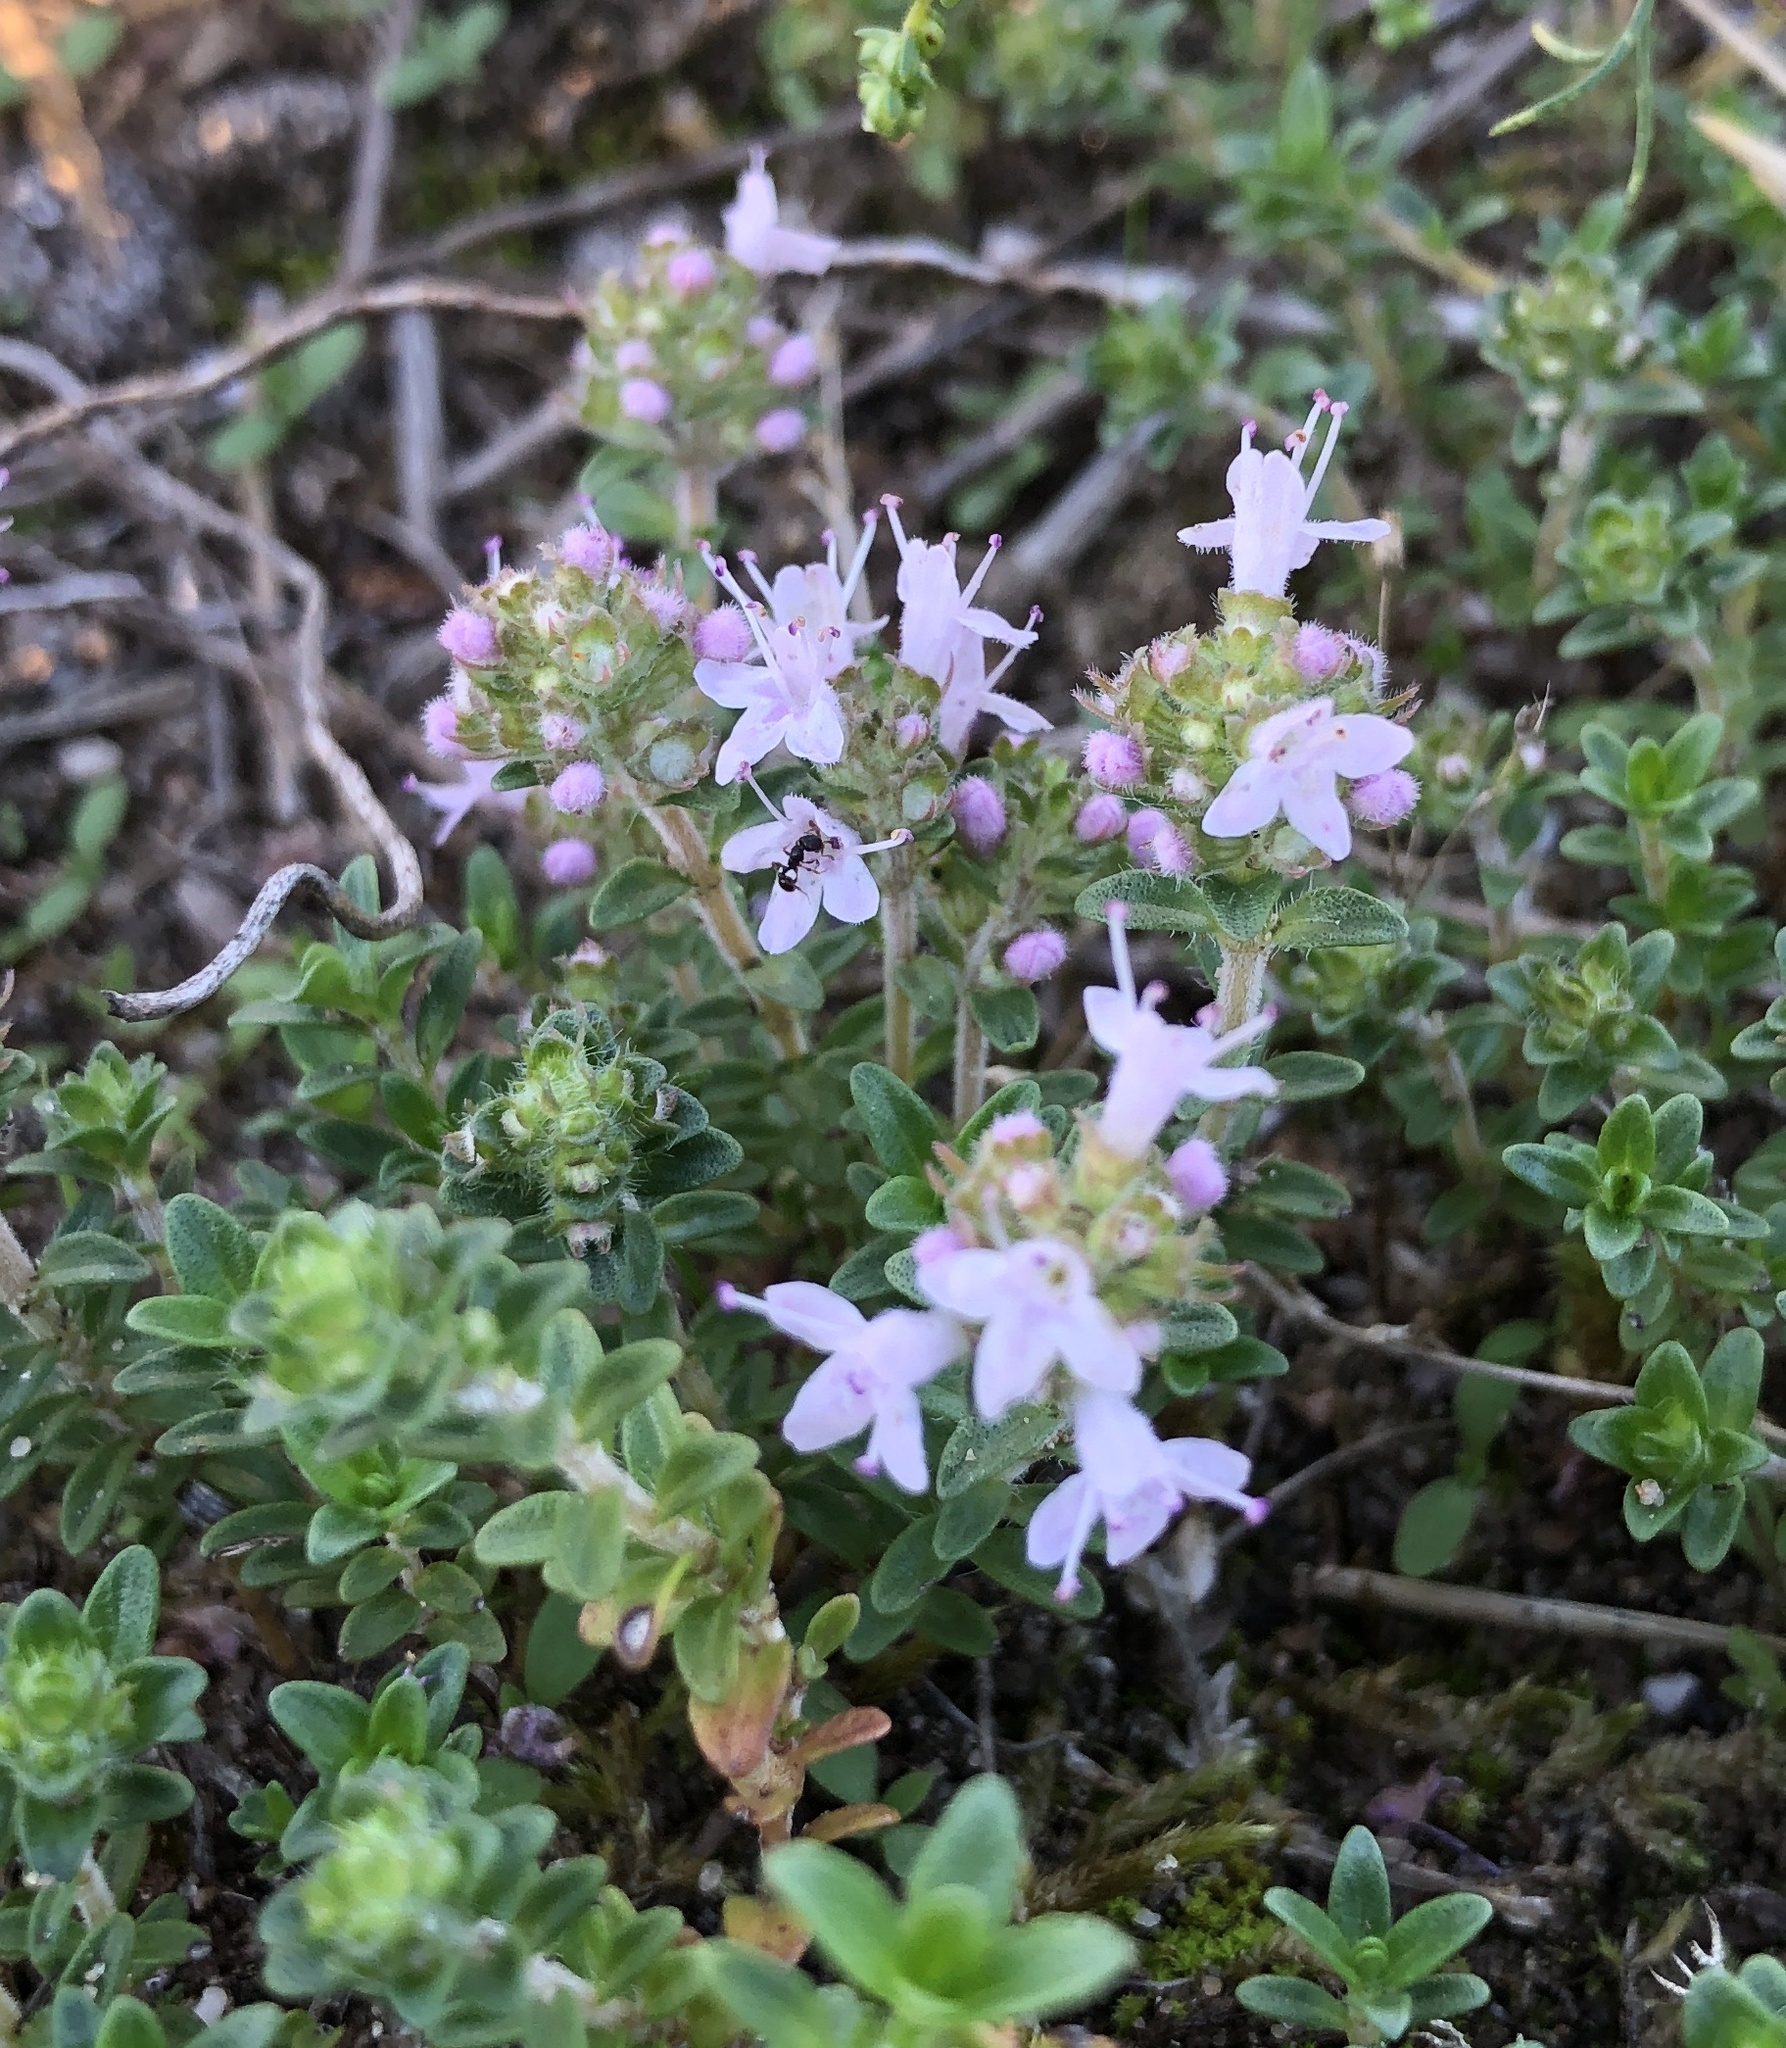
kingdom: Plantae
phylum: Tracheophyta
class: Magnoliopsida
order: Lamiales
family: Lamiaceae
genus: Thymus
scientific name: Thymus serpyllum
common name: Breckland thyme
